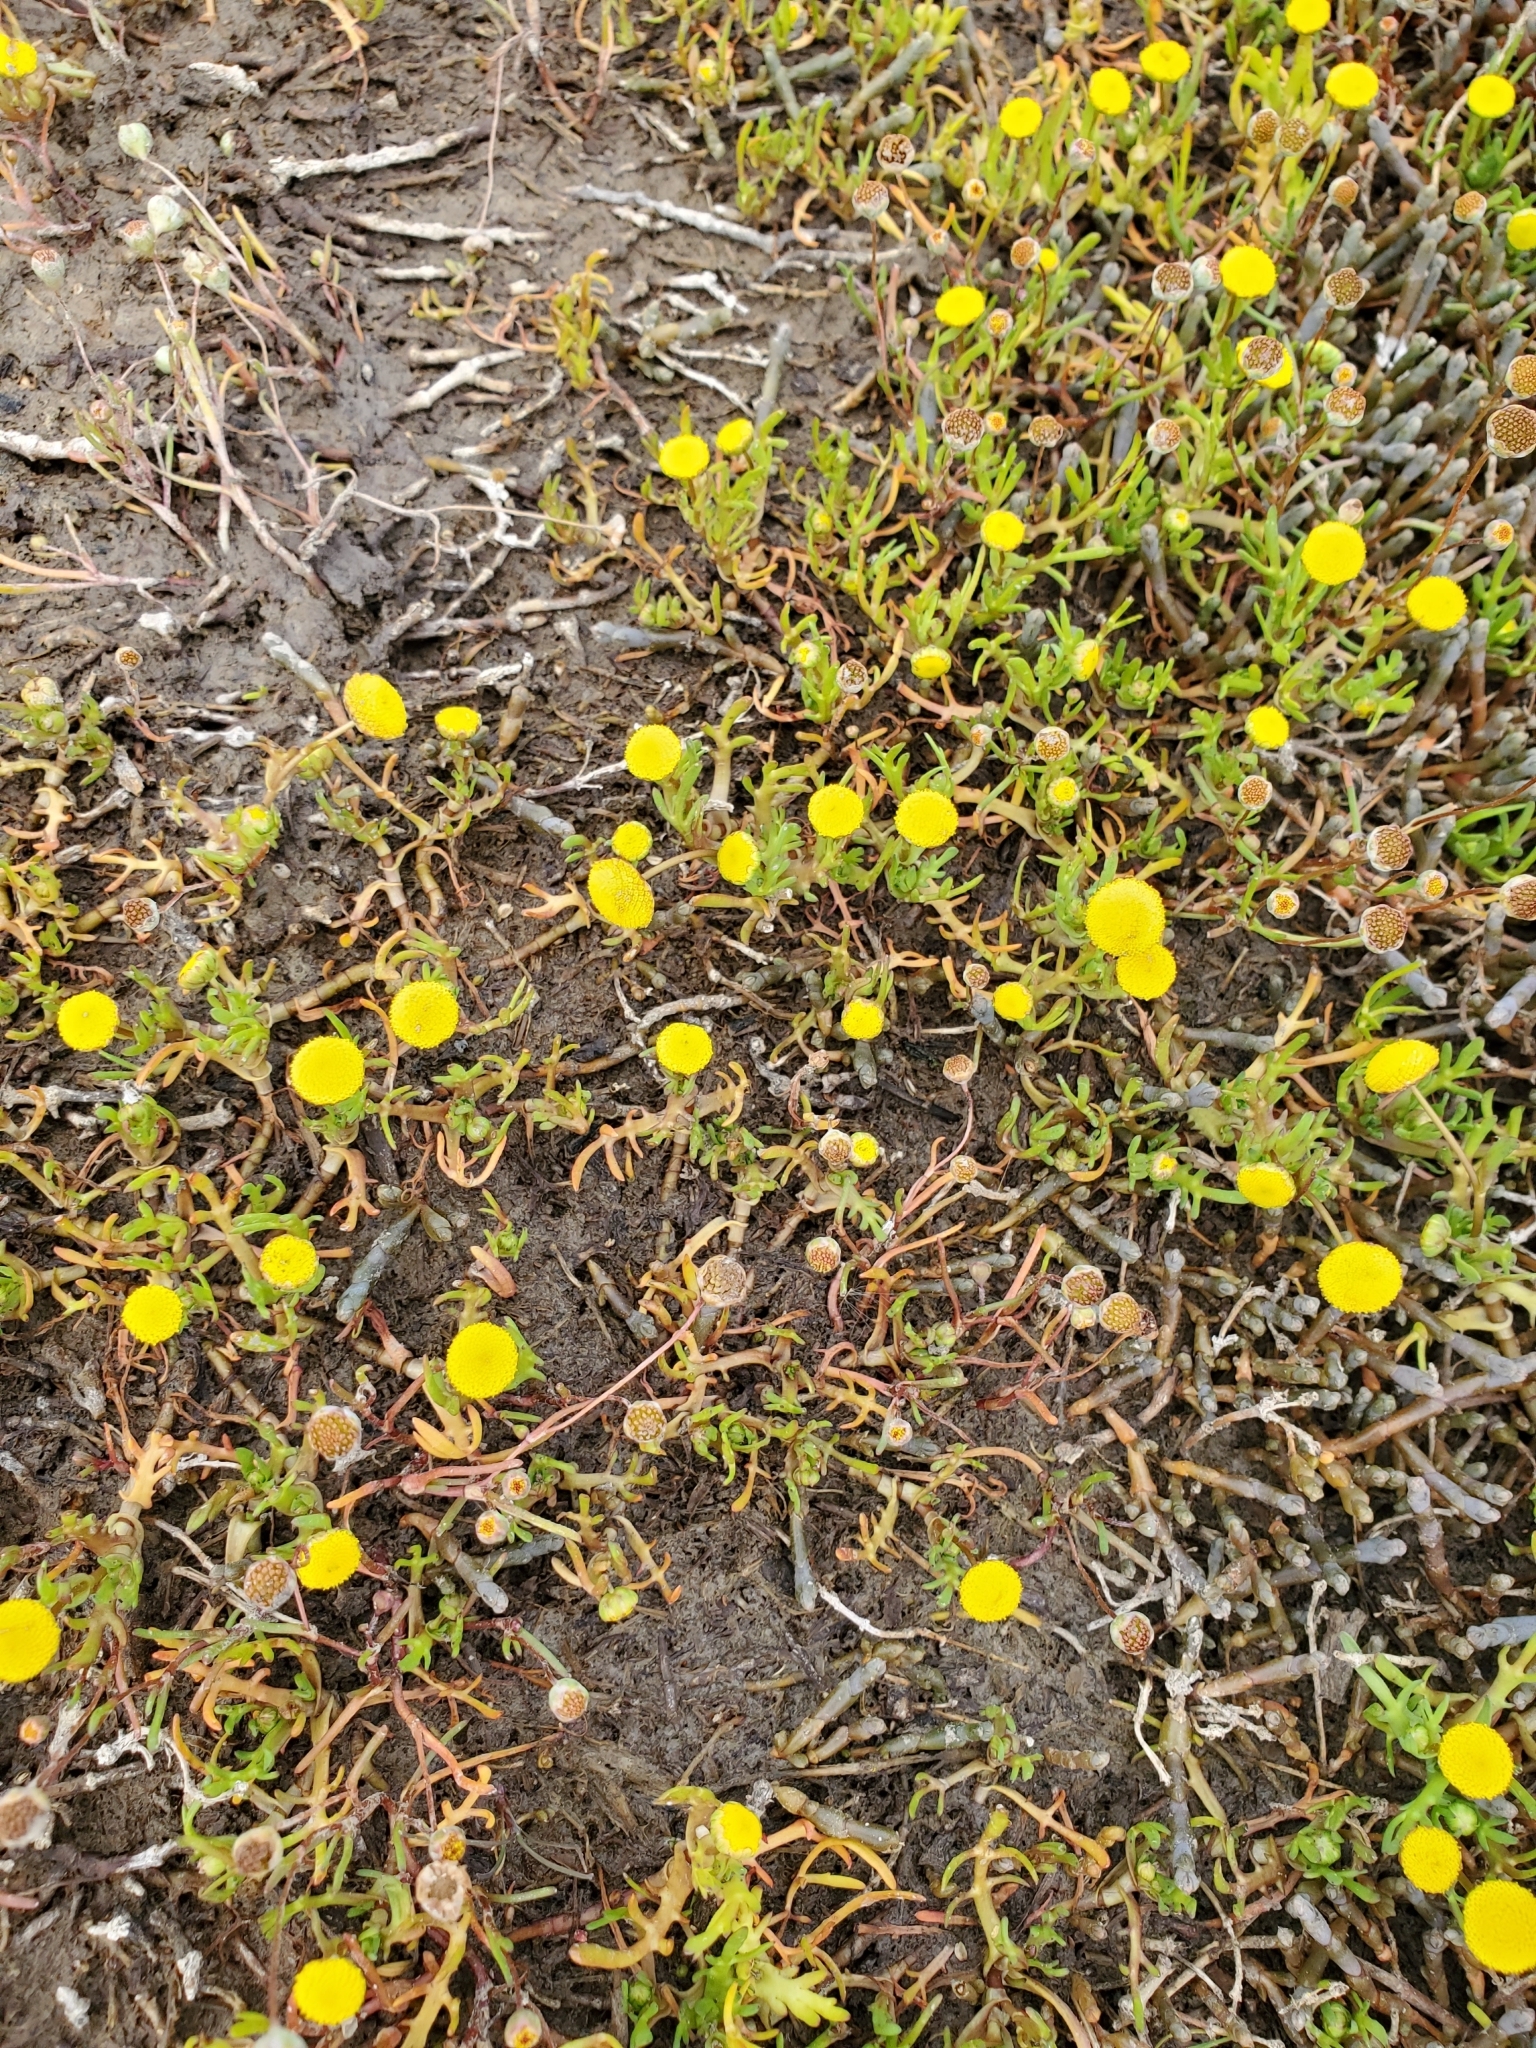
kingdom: Plantae
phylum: Tracheophyta
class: Magnoliopsida
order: Asterales
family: Asteraceae
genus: Cotula
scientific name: Cotula coronopifolia
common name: Buttonweed
